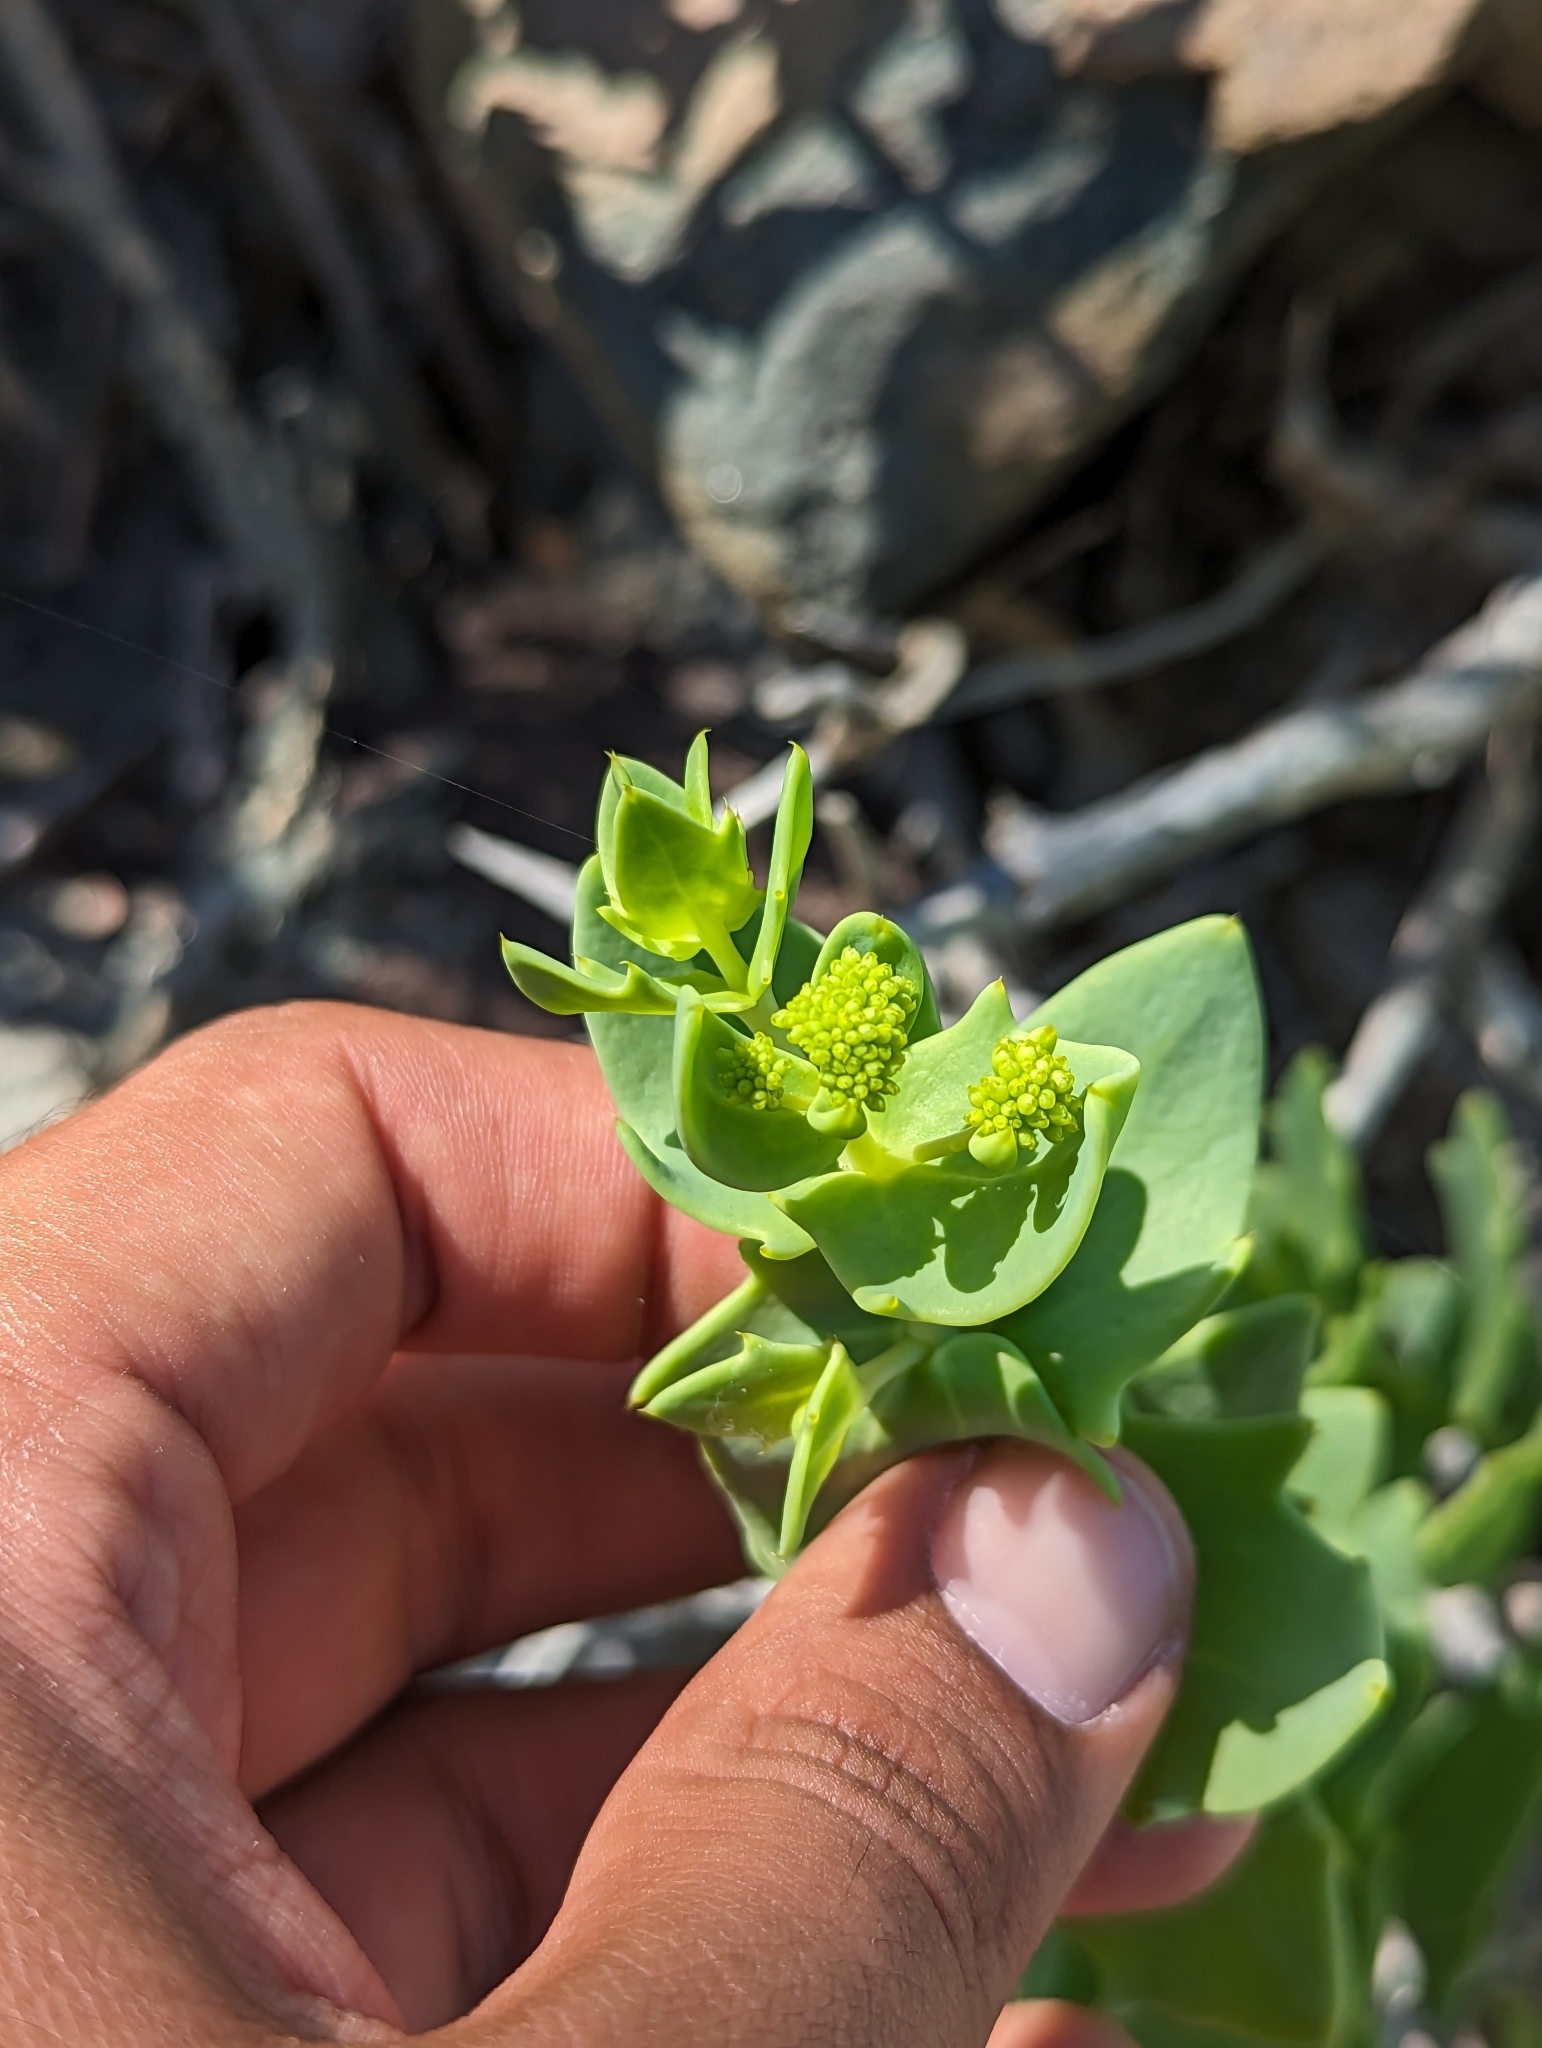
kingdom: Plantae
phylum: Tracheophyta
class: Magnoliopsida
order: Asterales
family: Asteraceae
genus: Coulterella
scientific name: Coulterella capitata
